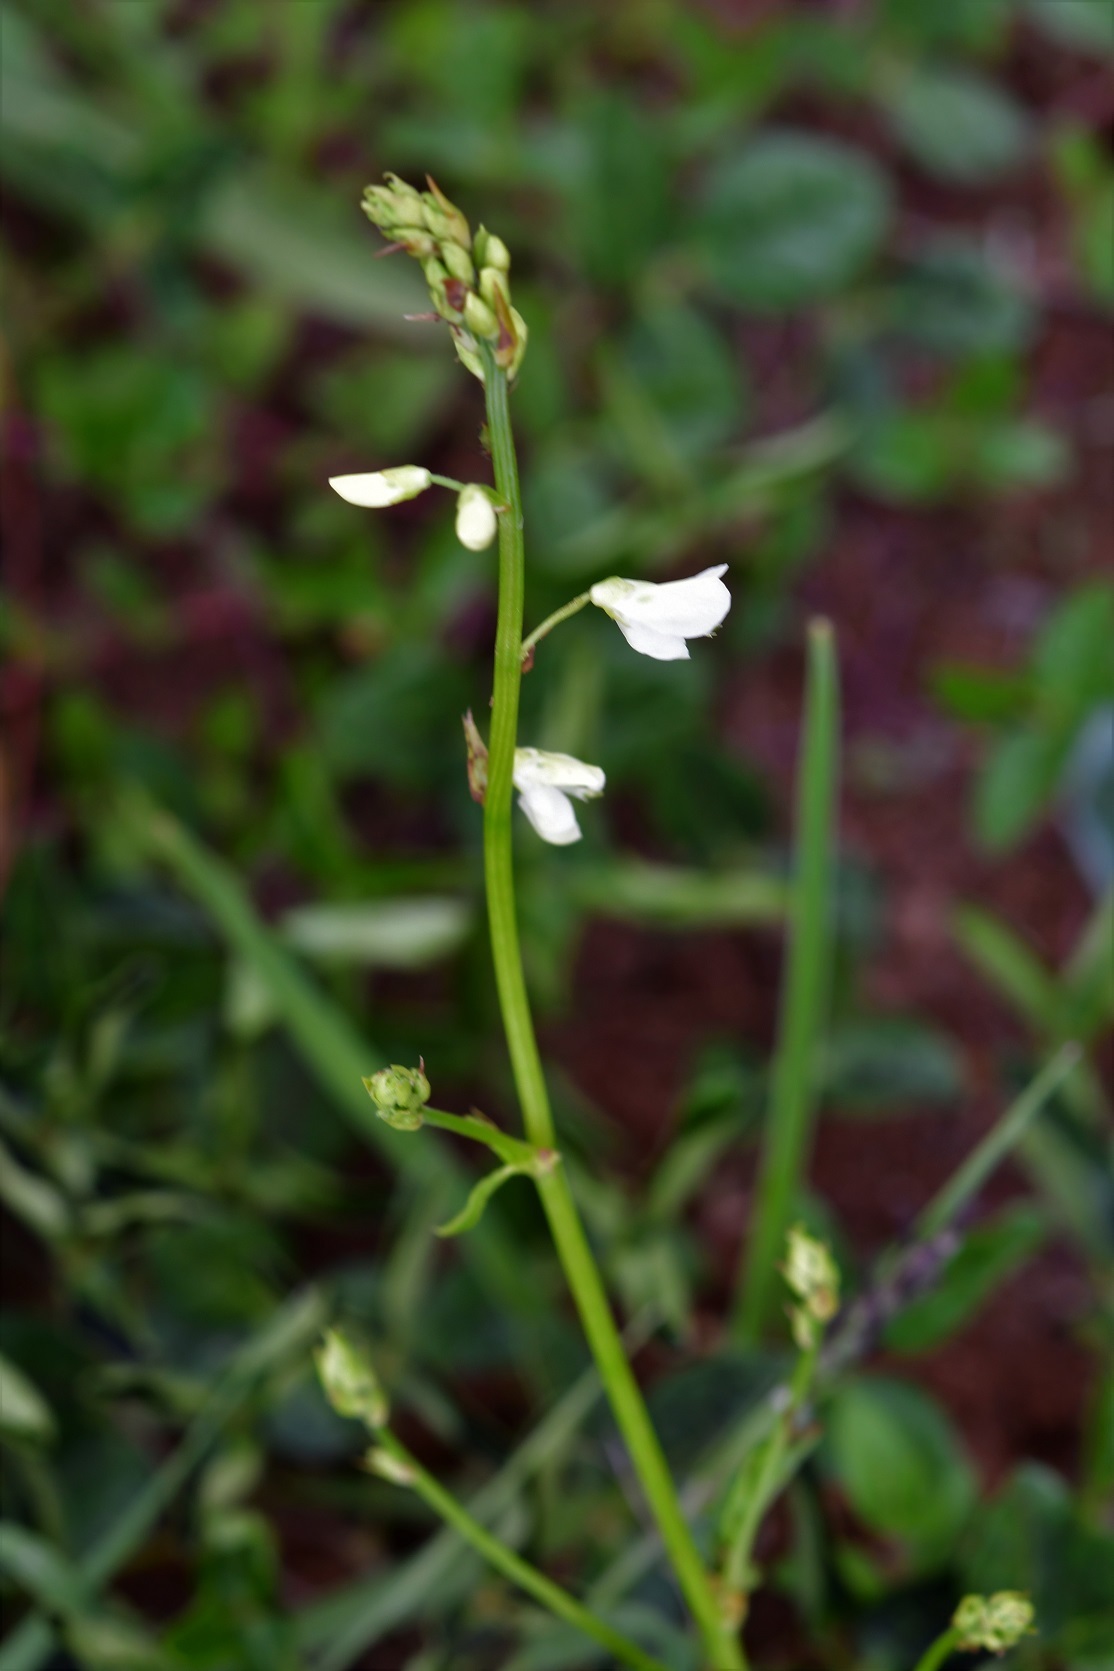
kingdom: Plantae
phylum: Tracheophyta
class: Magnoliopsida
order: Fabales
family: Fabaceae
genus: Desmodium
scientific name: Desmodium macrostachyum
